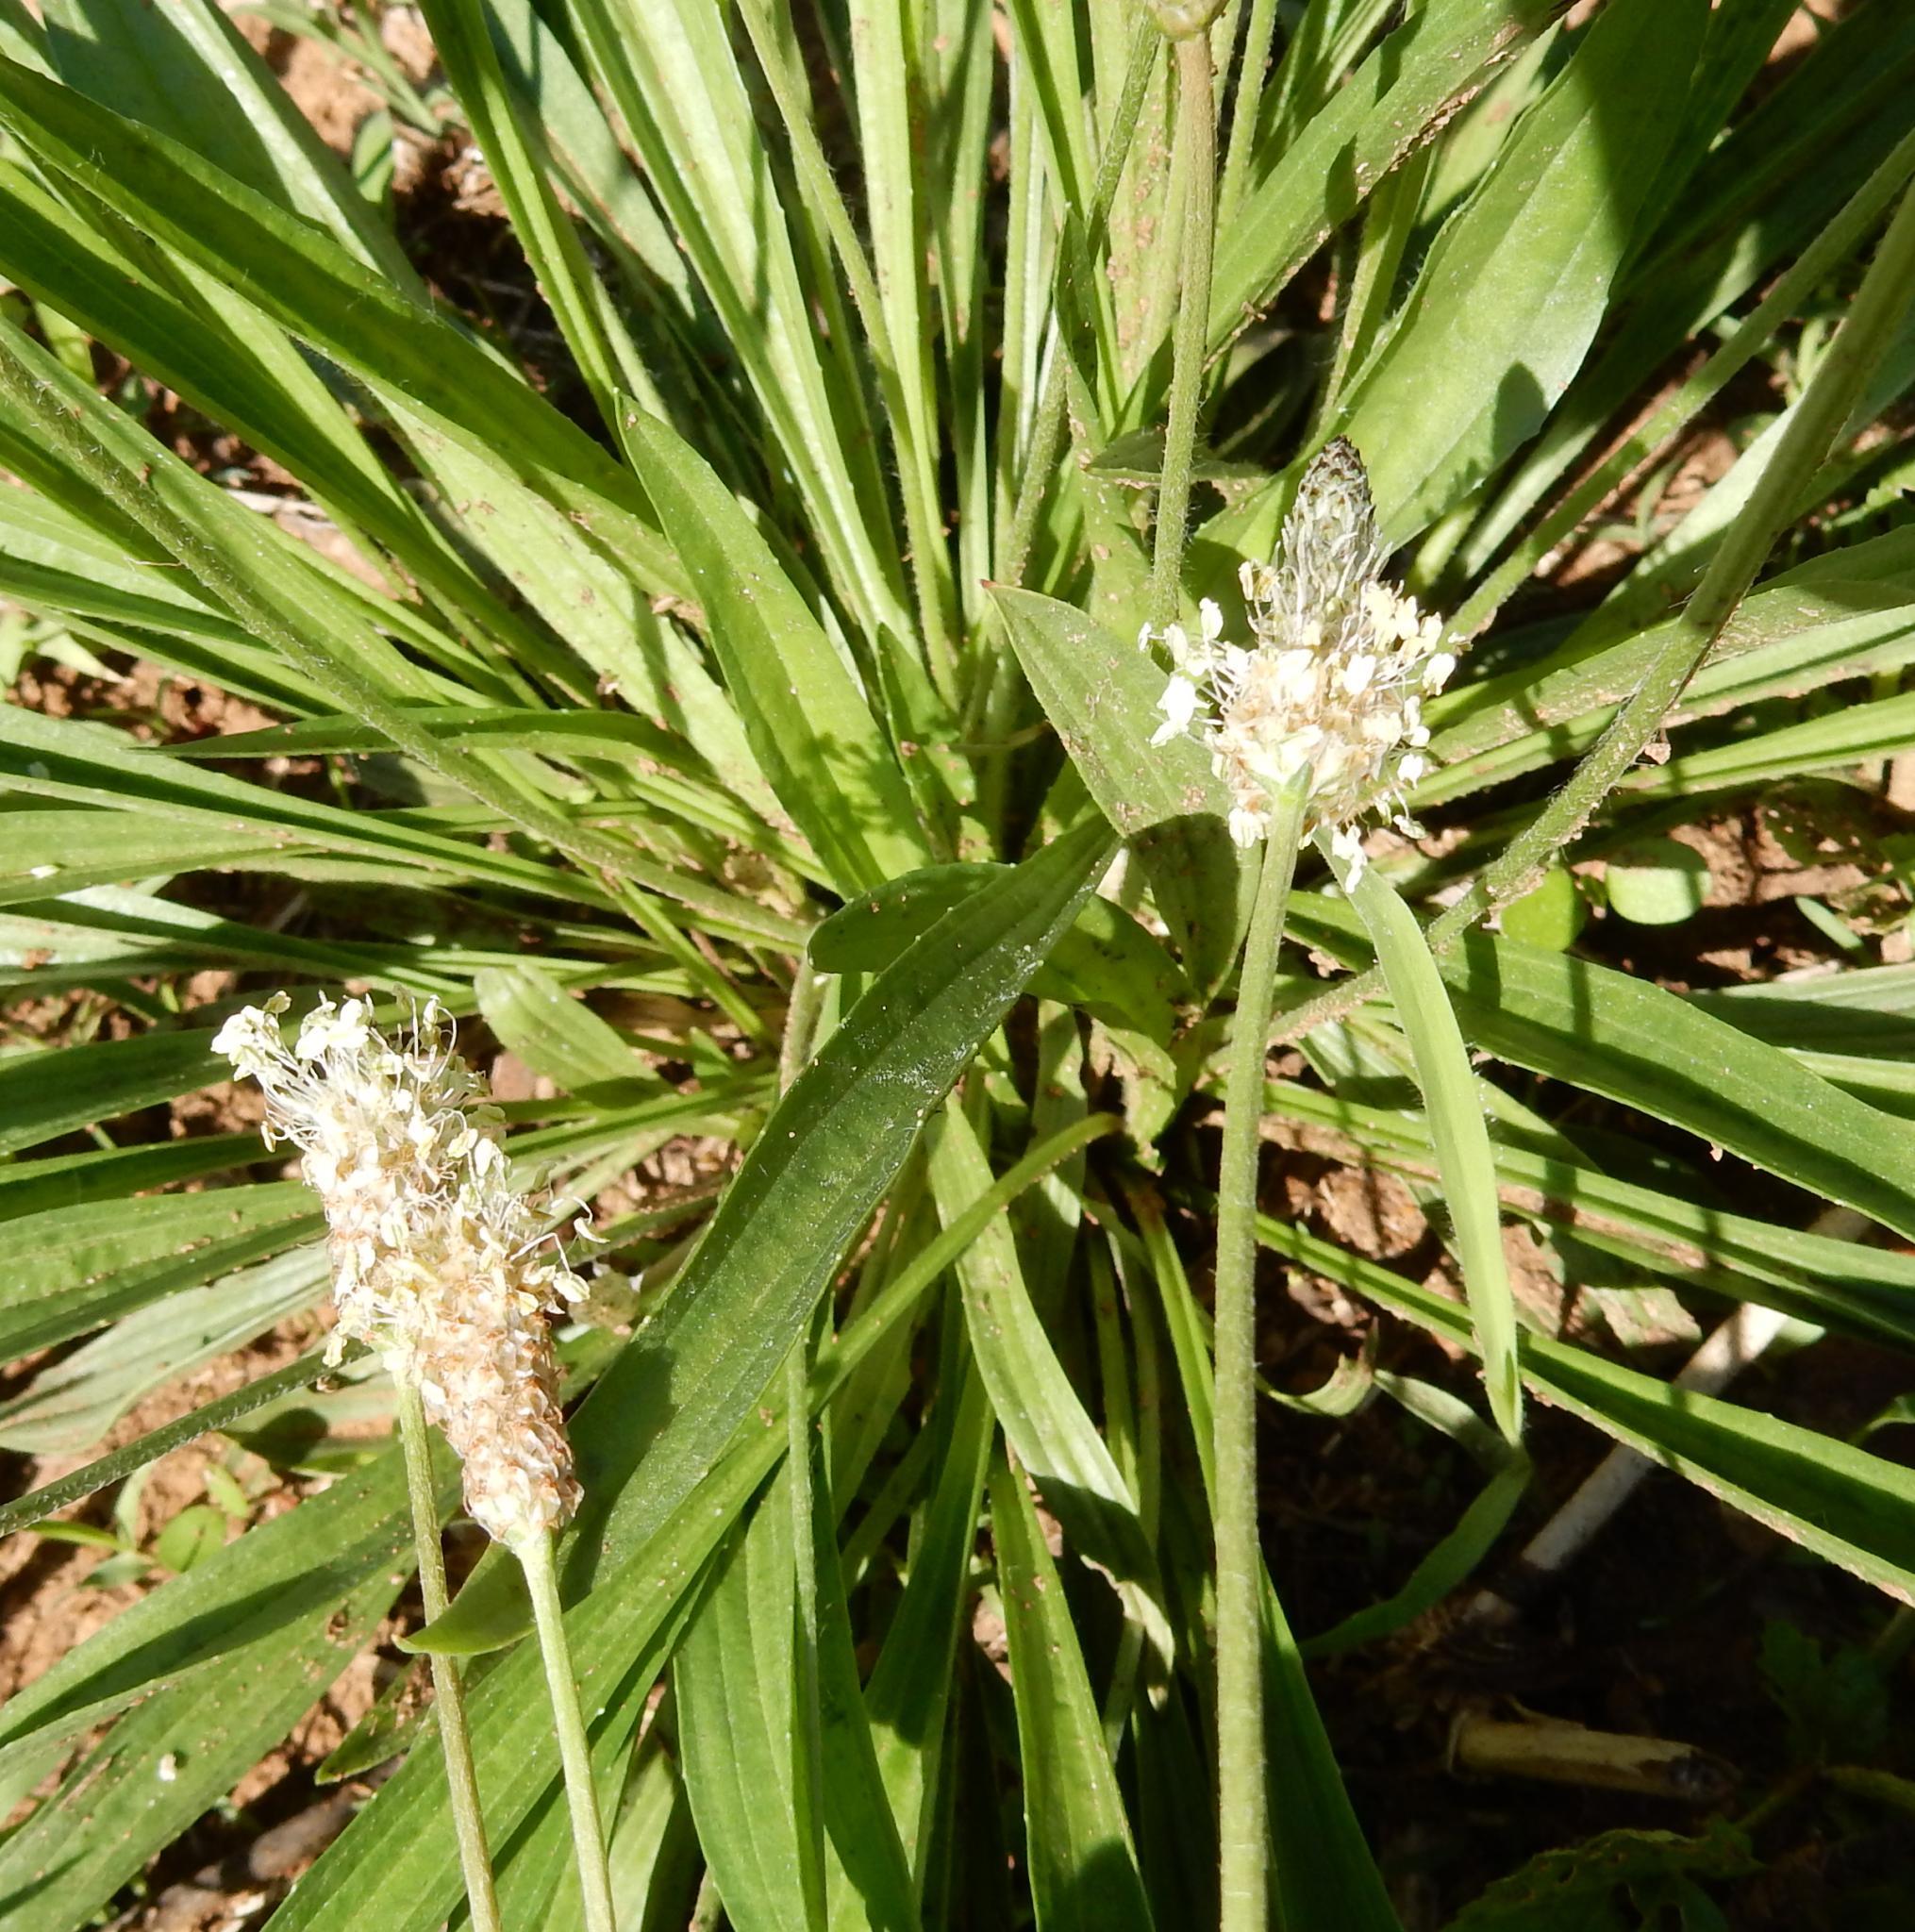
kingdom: Plantae
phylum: Tracheophyta
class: Magnoliopsida
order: Lamiales
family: Plantaginaceae
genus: Plantago
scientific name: Plantago lanceolata
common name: Ribwort plantain
